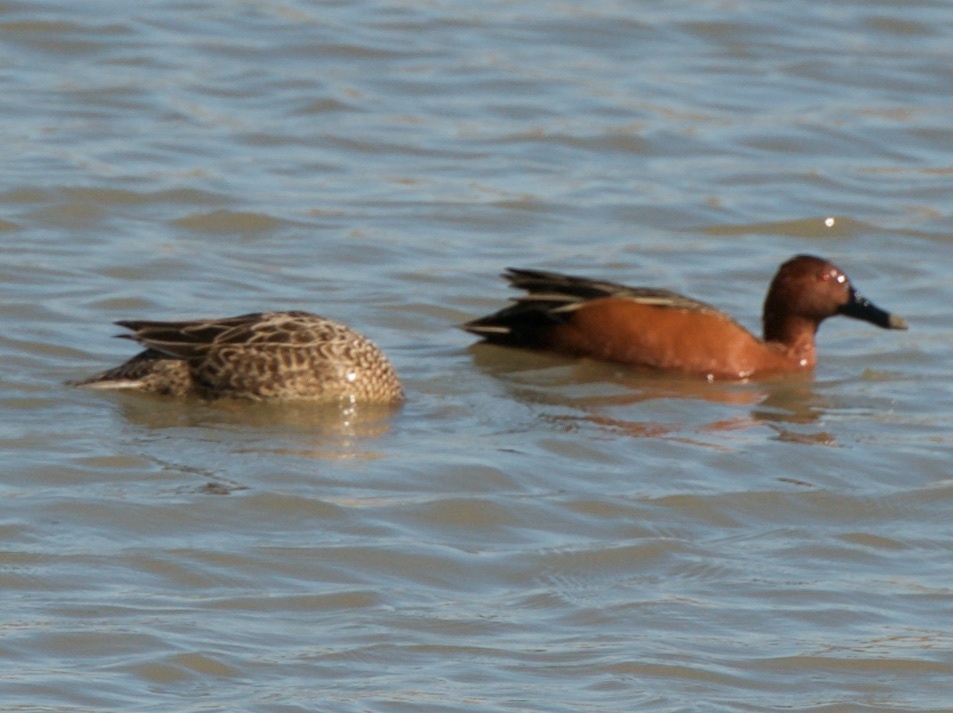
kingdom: Animalia
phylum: Chordata
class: Aves
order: Anseriformes
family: Anatidae
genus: Spatula
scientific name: Spatula cyanoptera
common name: Cinnamon teal
